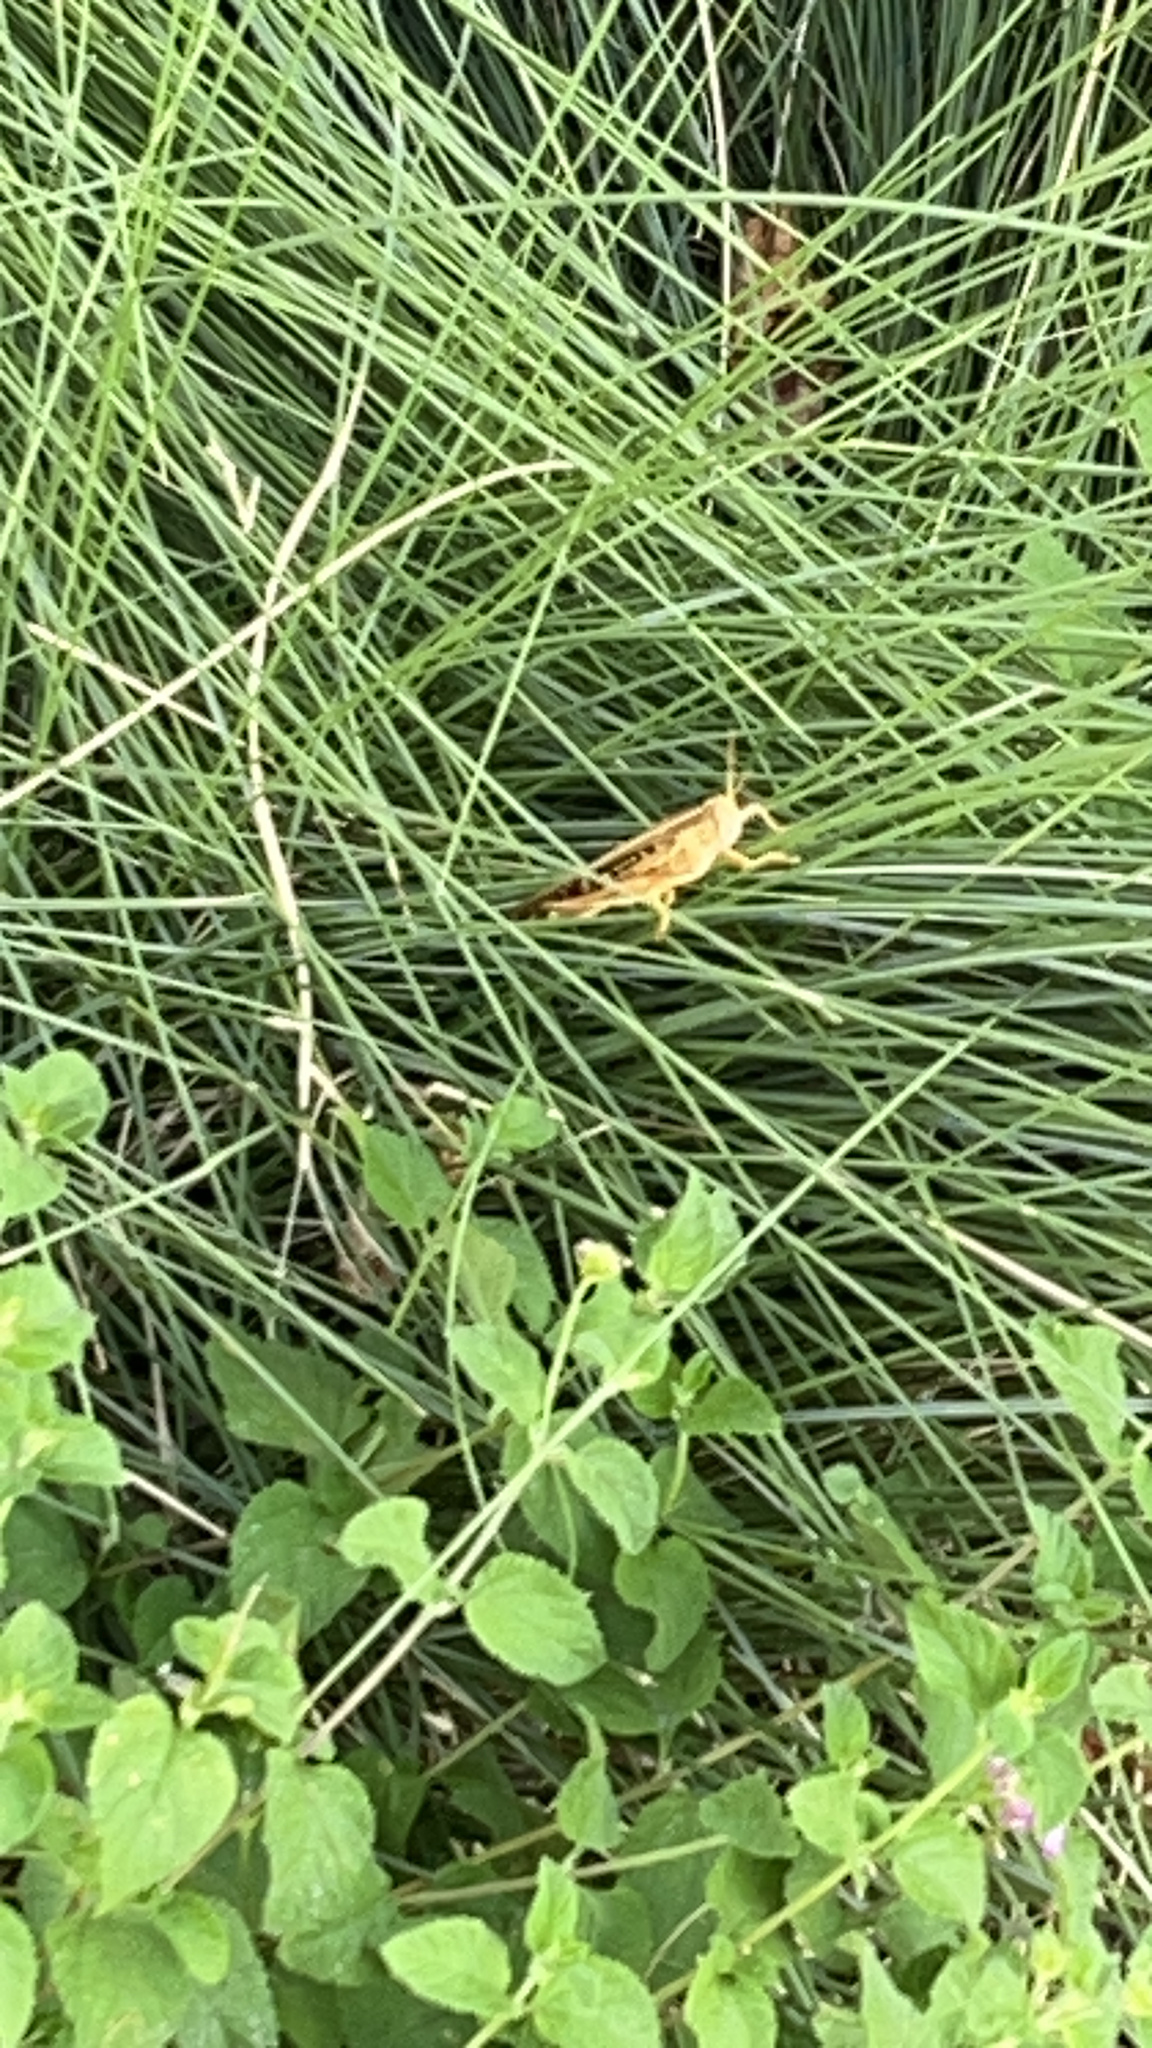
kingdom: Animalia
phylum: Arthropoda
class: Insecta
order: Orthoptera
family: Acrididae
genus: Schistocerca
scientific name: Schistocerca americana
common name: American bird locust
